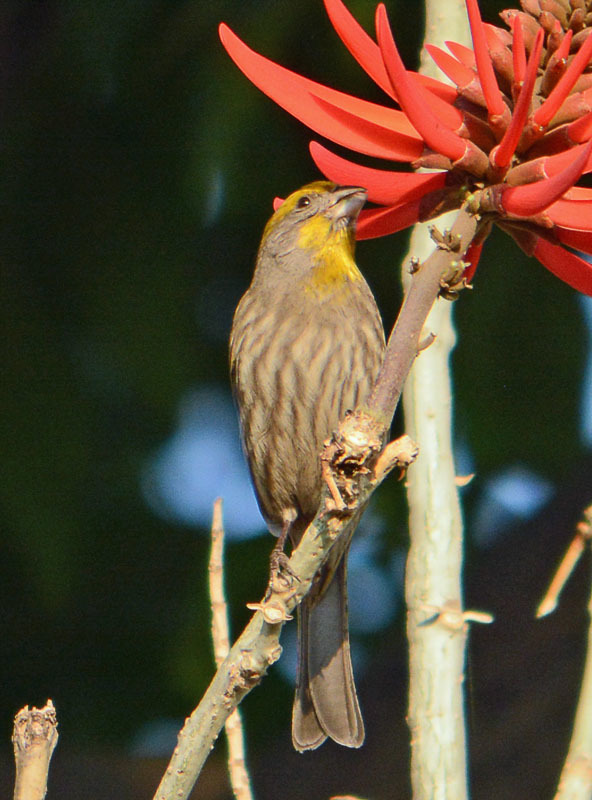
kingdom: Animalia
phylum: Chordata
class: Aves
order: Passeriformes
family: Fringillidae
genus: Haemorhous
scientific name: Haemorhous mexicanus
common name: House finch
